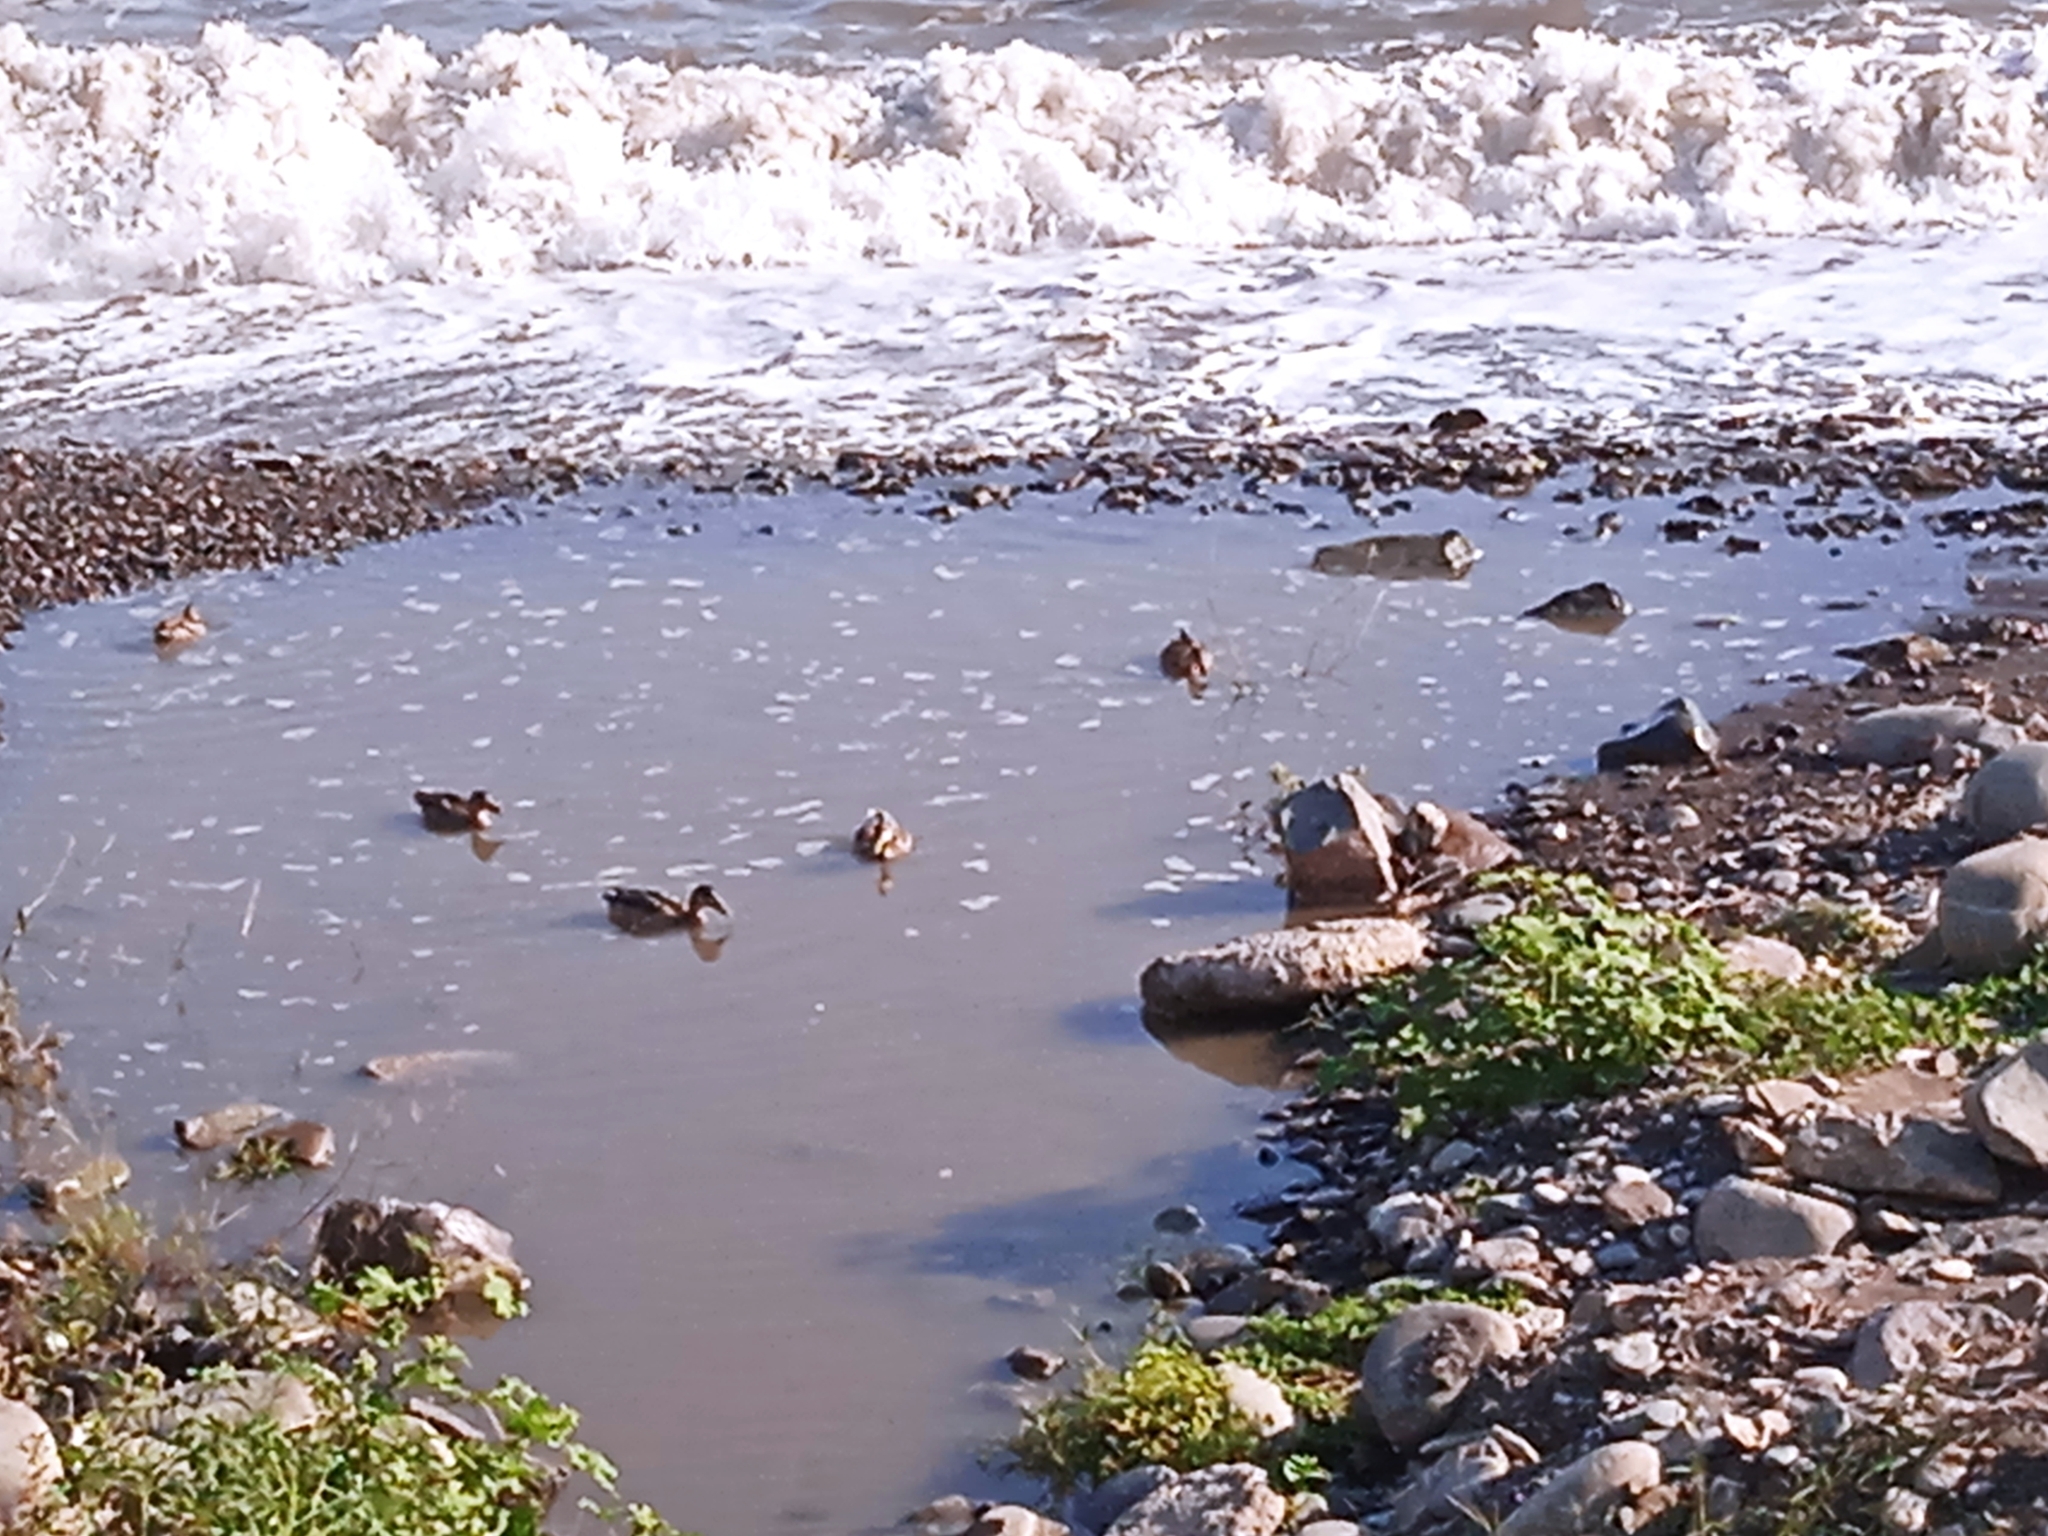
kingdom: Animalia
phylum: Chordata
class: Aves
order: Anseriformes
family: Anatidae
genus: Anas
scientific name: Anas platyrhynchos
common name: Mallard
